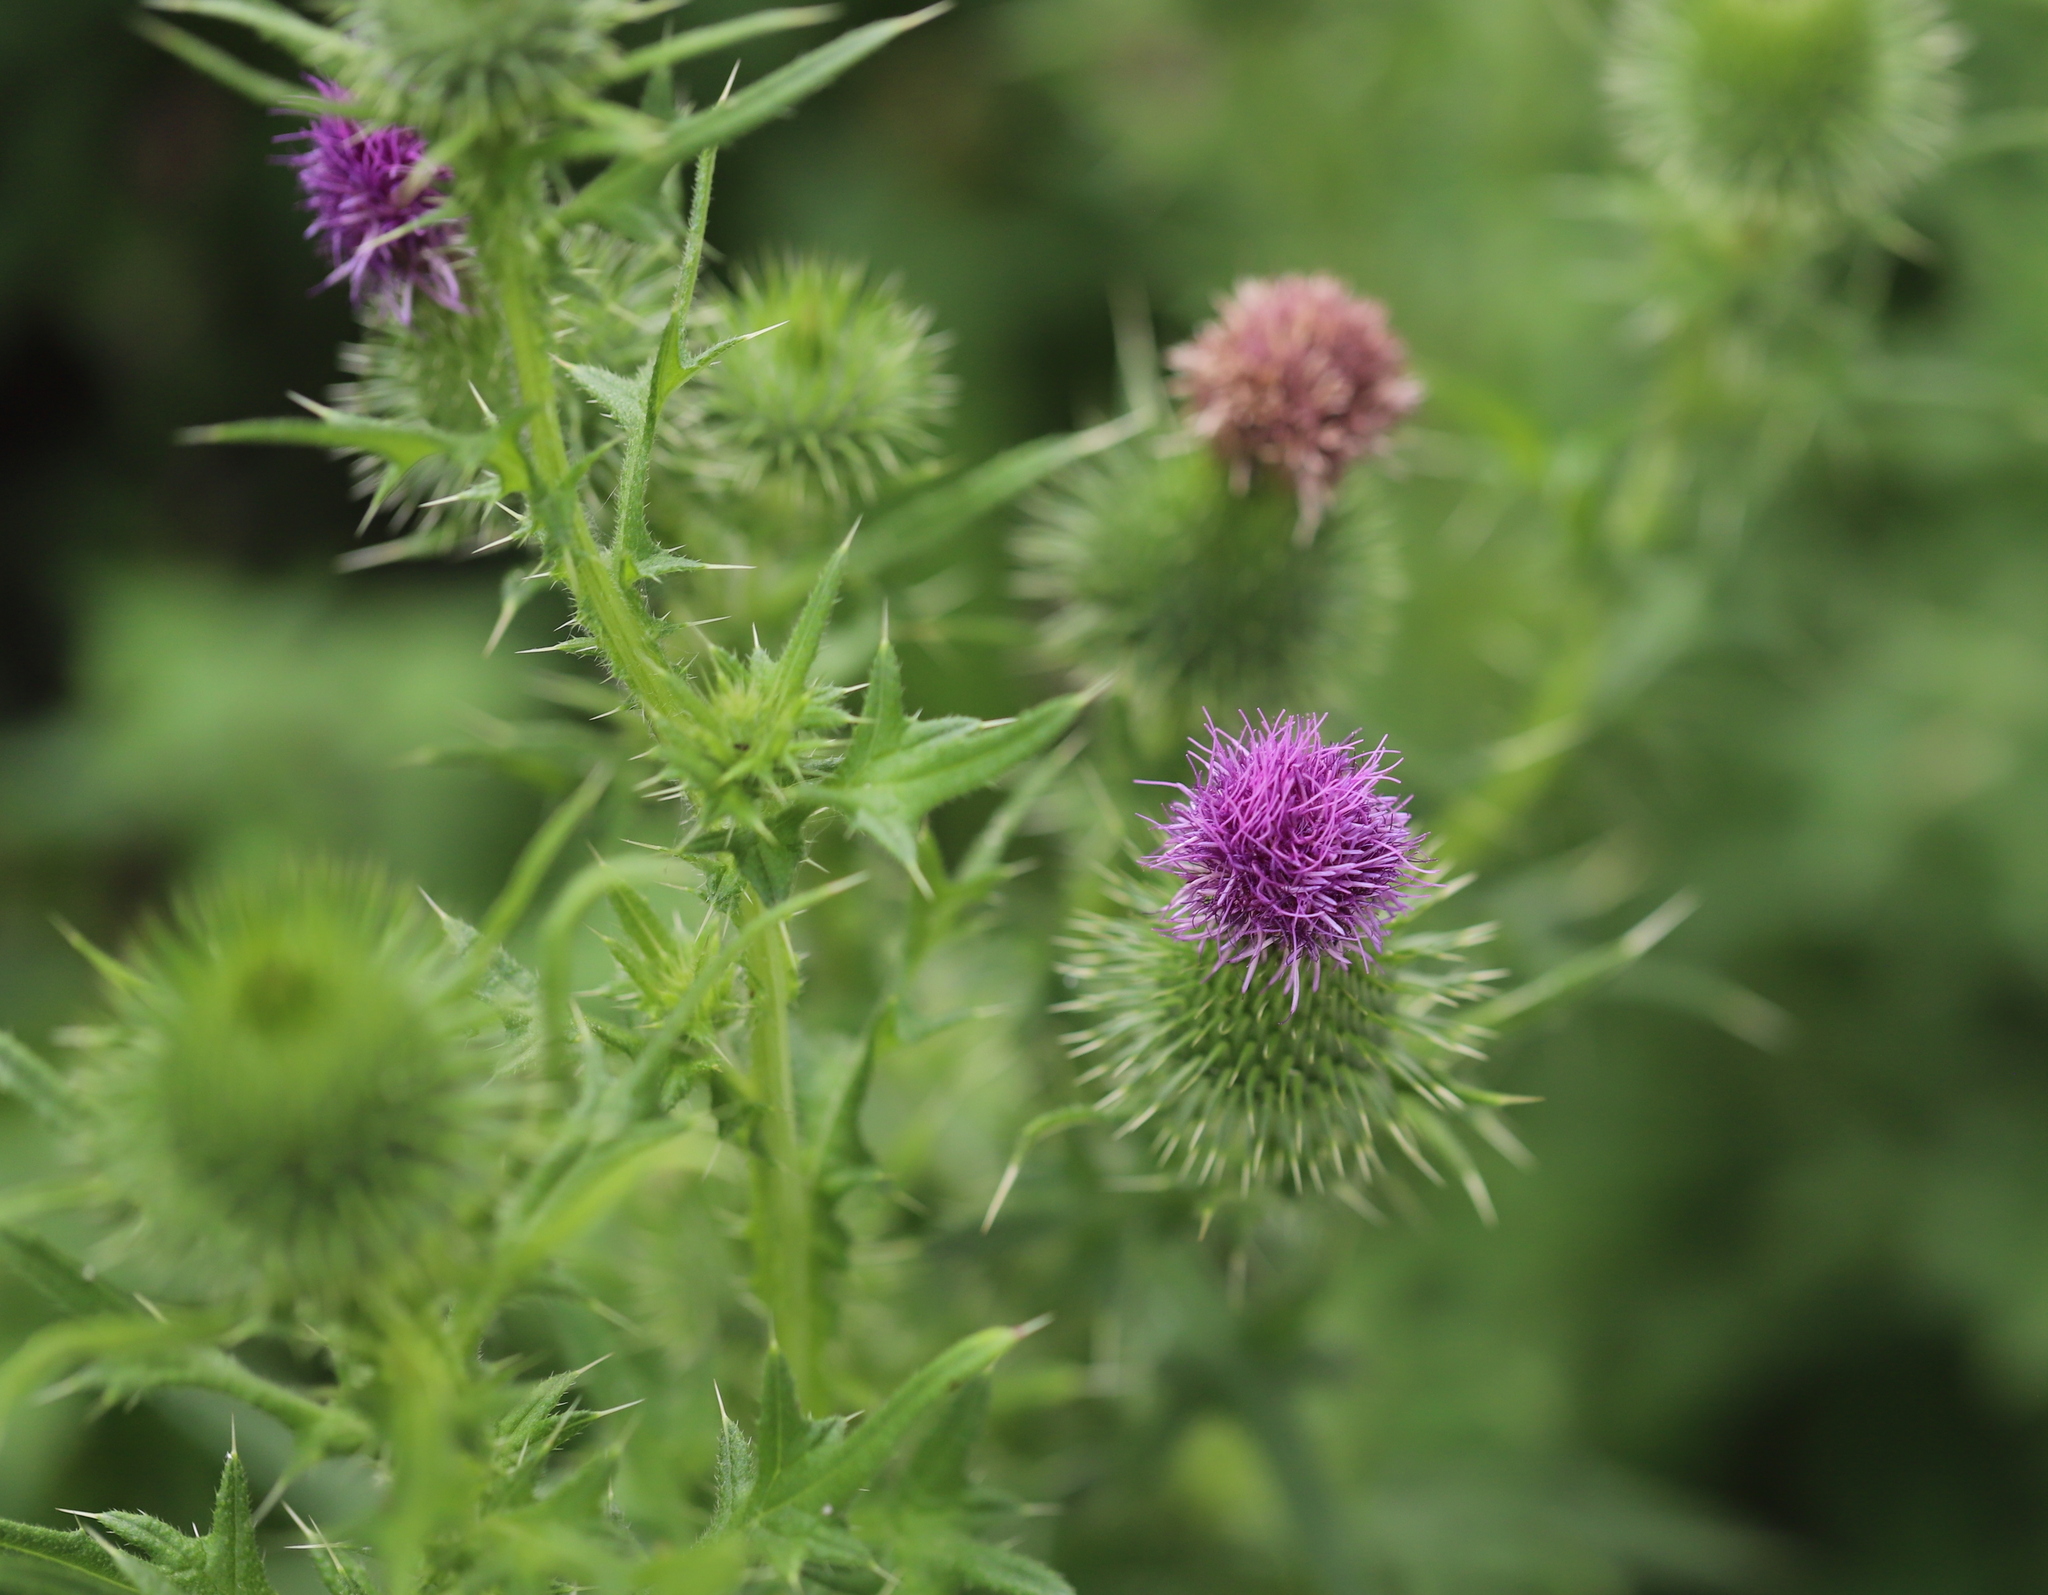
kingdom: Plantae
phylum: Tracheophyta
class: Magnoliopsida
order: Asterales
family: Asteraceae
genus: Cirsium
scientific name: Cirsium vulgare
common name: Bull thistle
